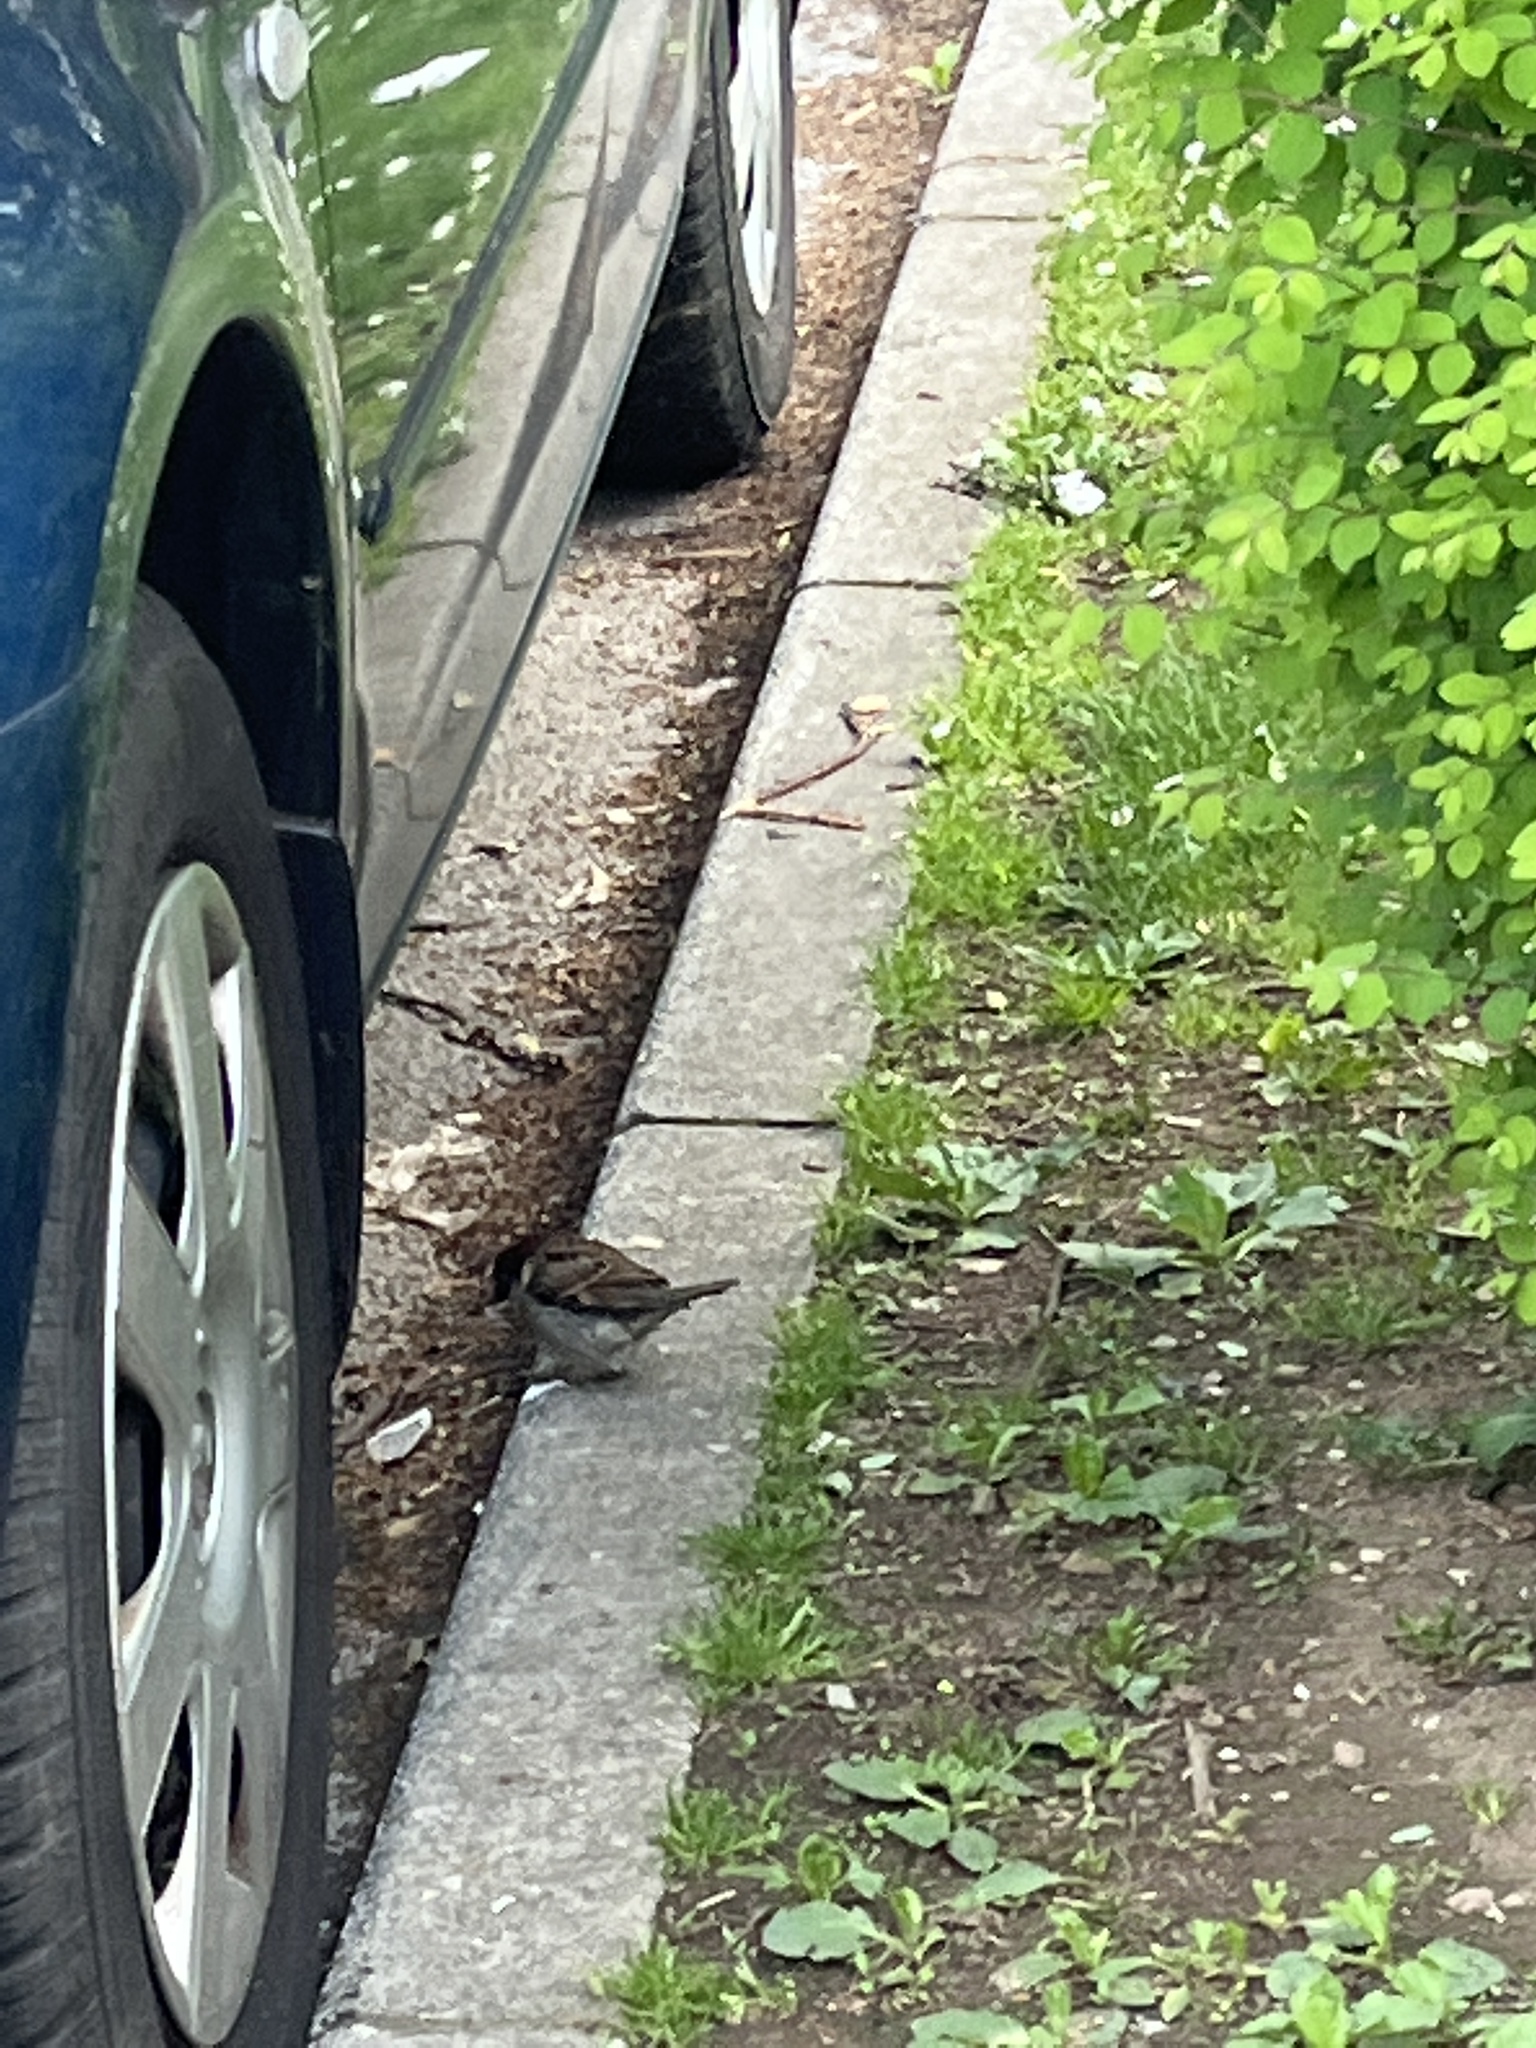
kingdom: Animalia
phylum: Chordata
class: Aves
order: Passeriformes
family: Passeridae
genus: Passer
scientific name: Passer domesticus
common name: House sparrow
